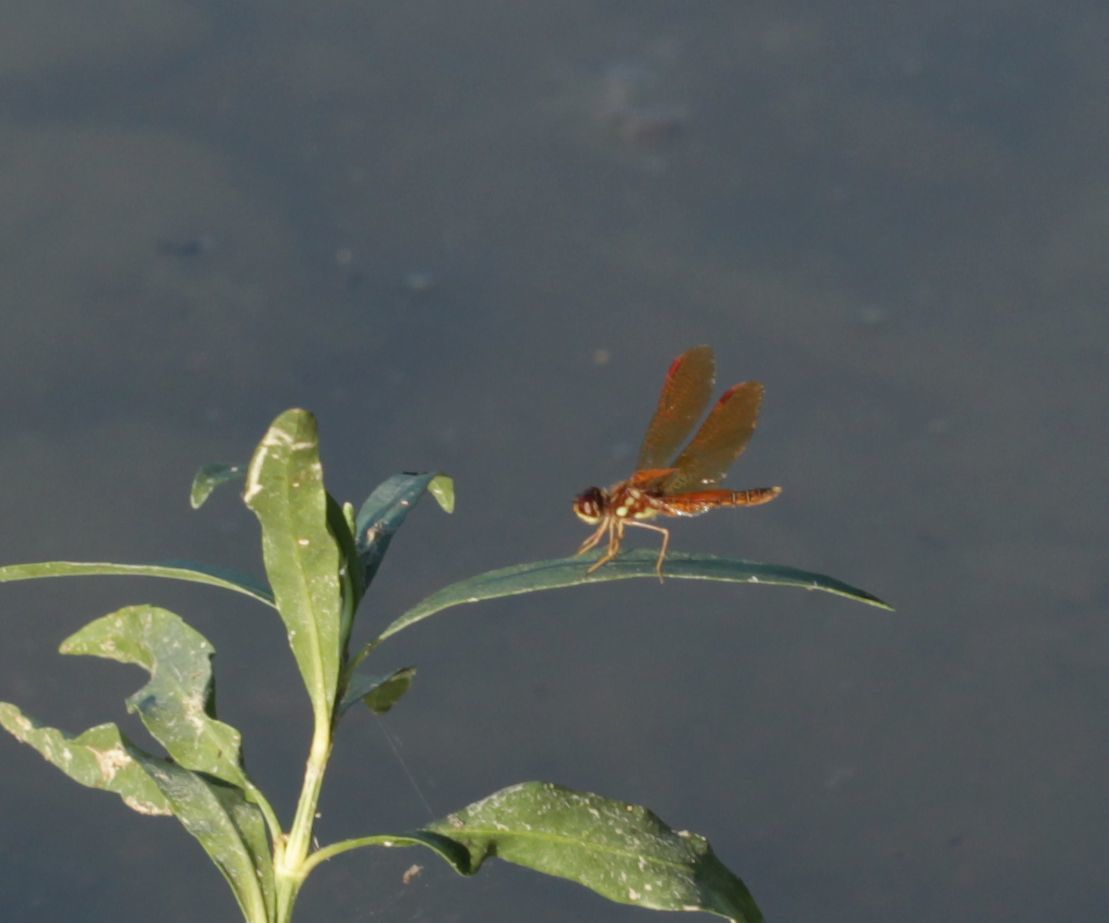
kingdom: Animalia
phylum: Arthropoda
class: Insecta
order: Odonata
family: Libellulidae
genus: Perithemis
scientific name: Perithemis tenera
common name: Eastern amberwing
